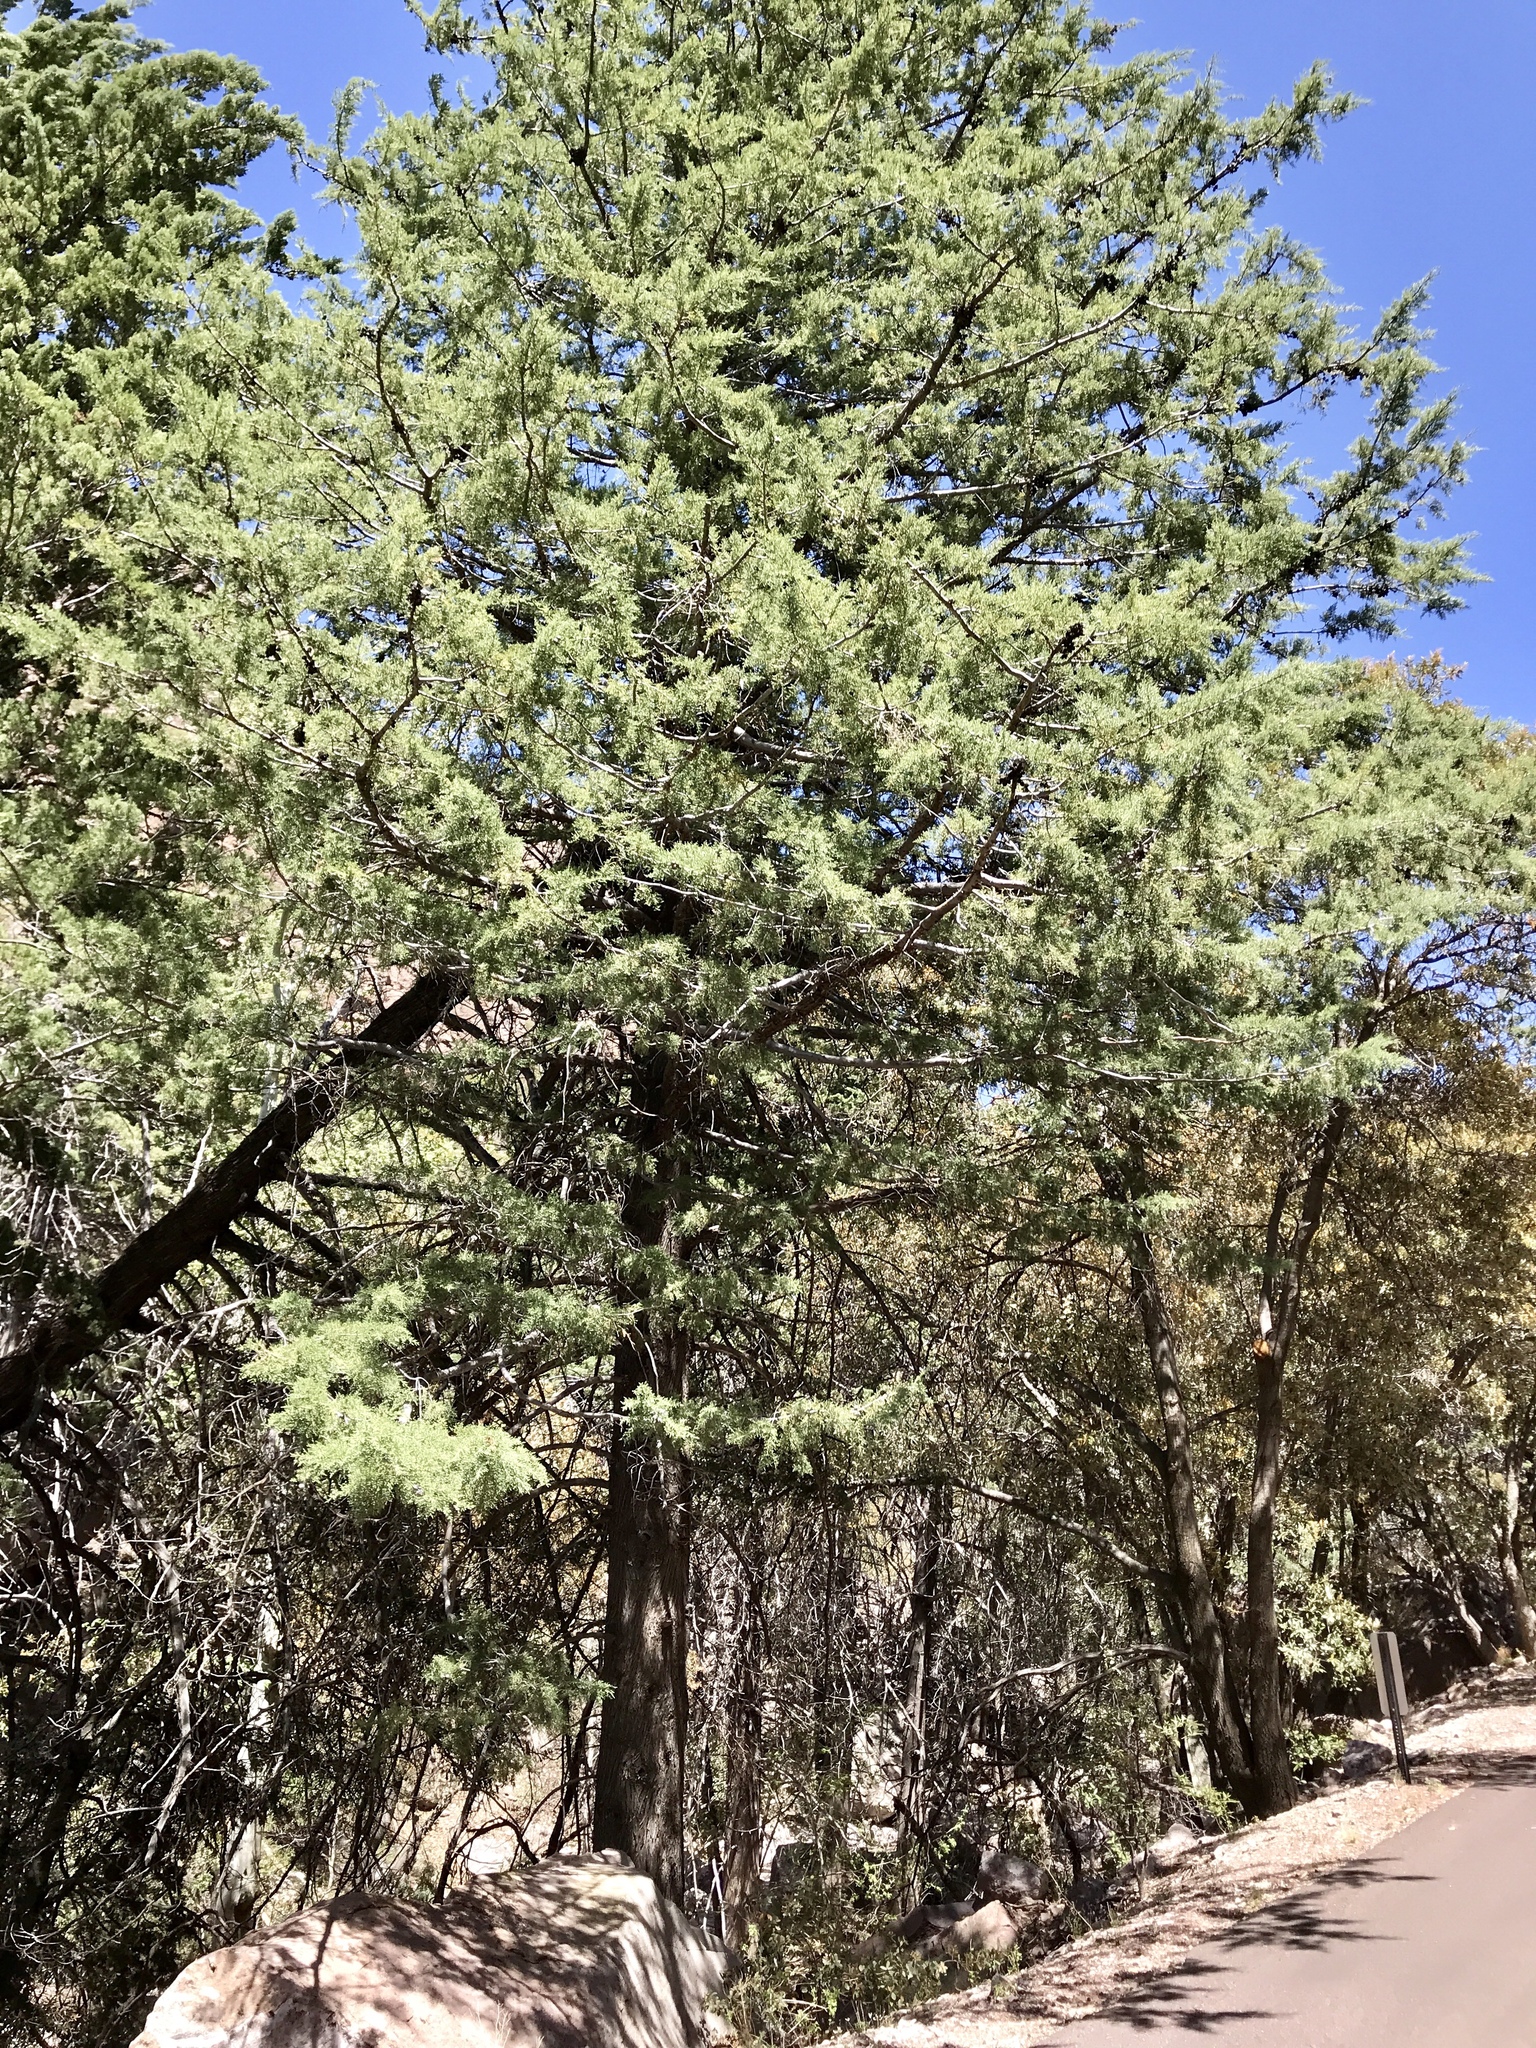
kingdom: Plantae
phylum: Tracheophyta
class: Pinopsida
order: Pinales
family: Cupressaceae
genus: Cupressus
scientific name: Cupressus arizonica
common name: Arizona cypress
